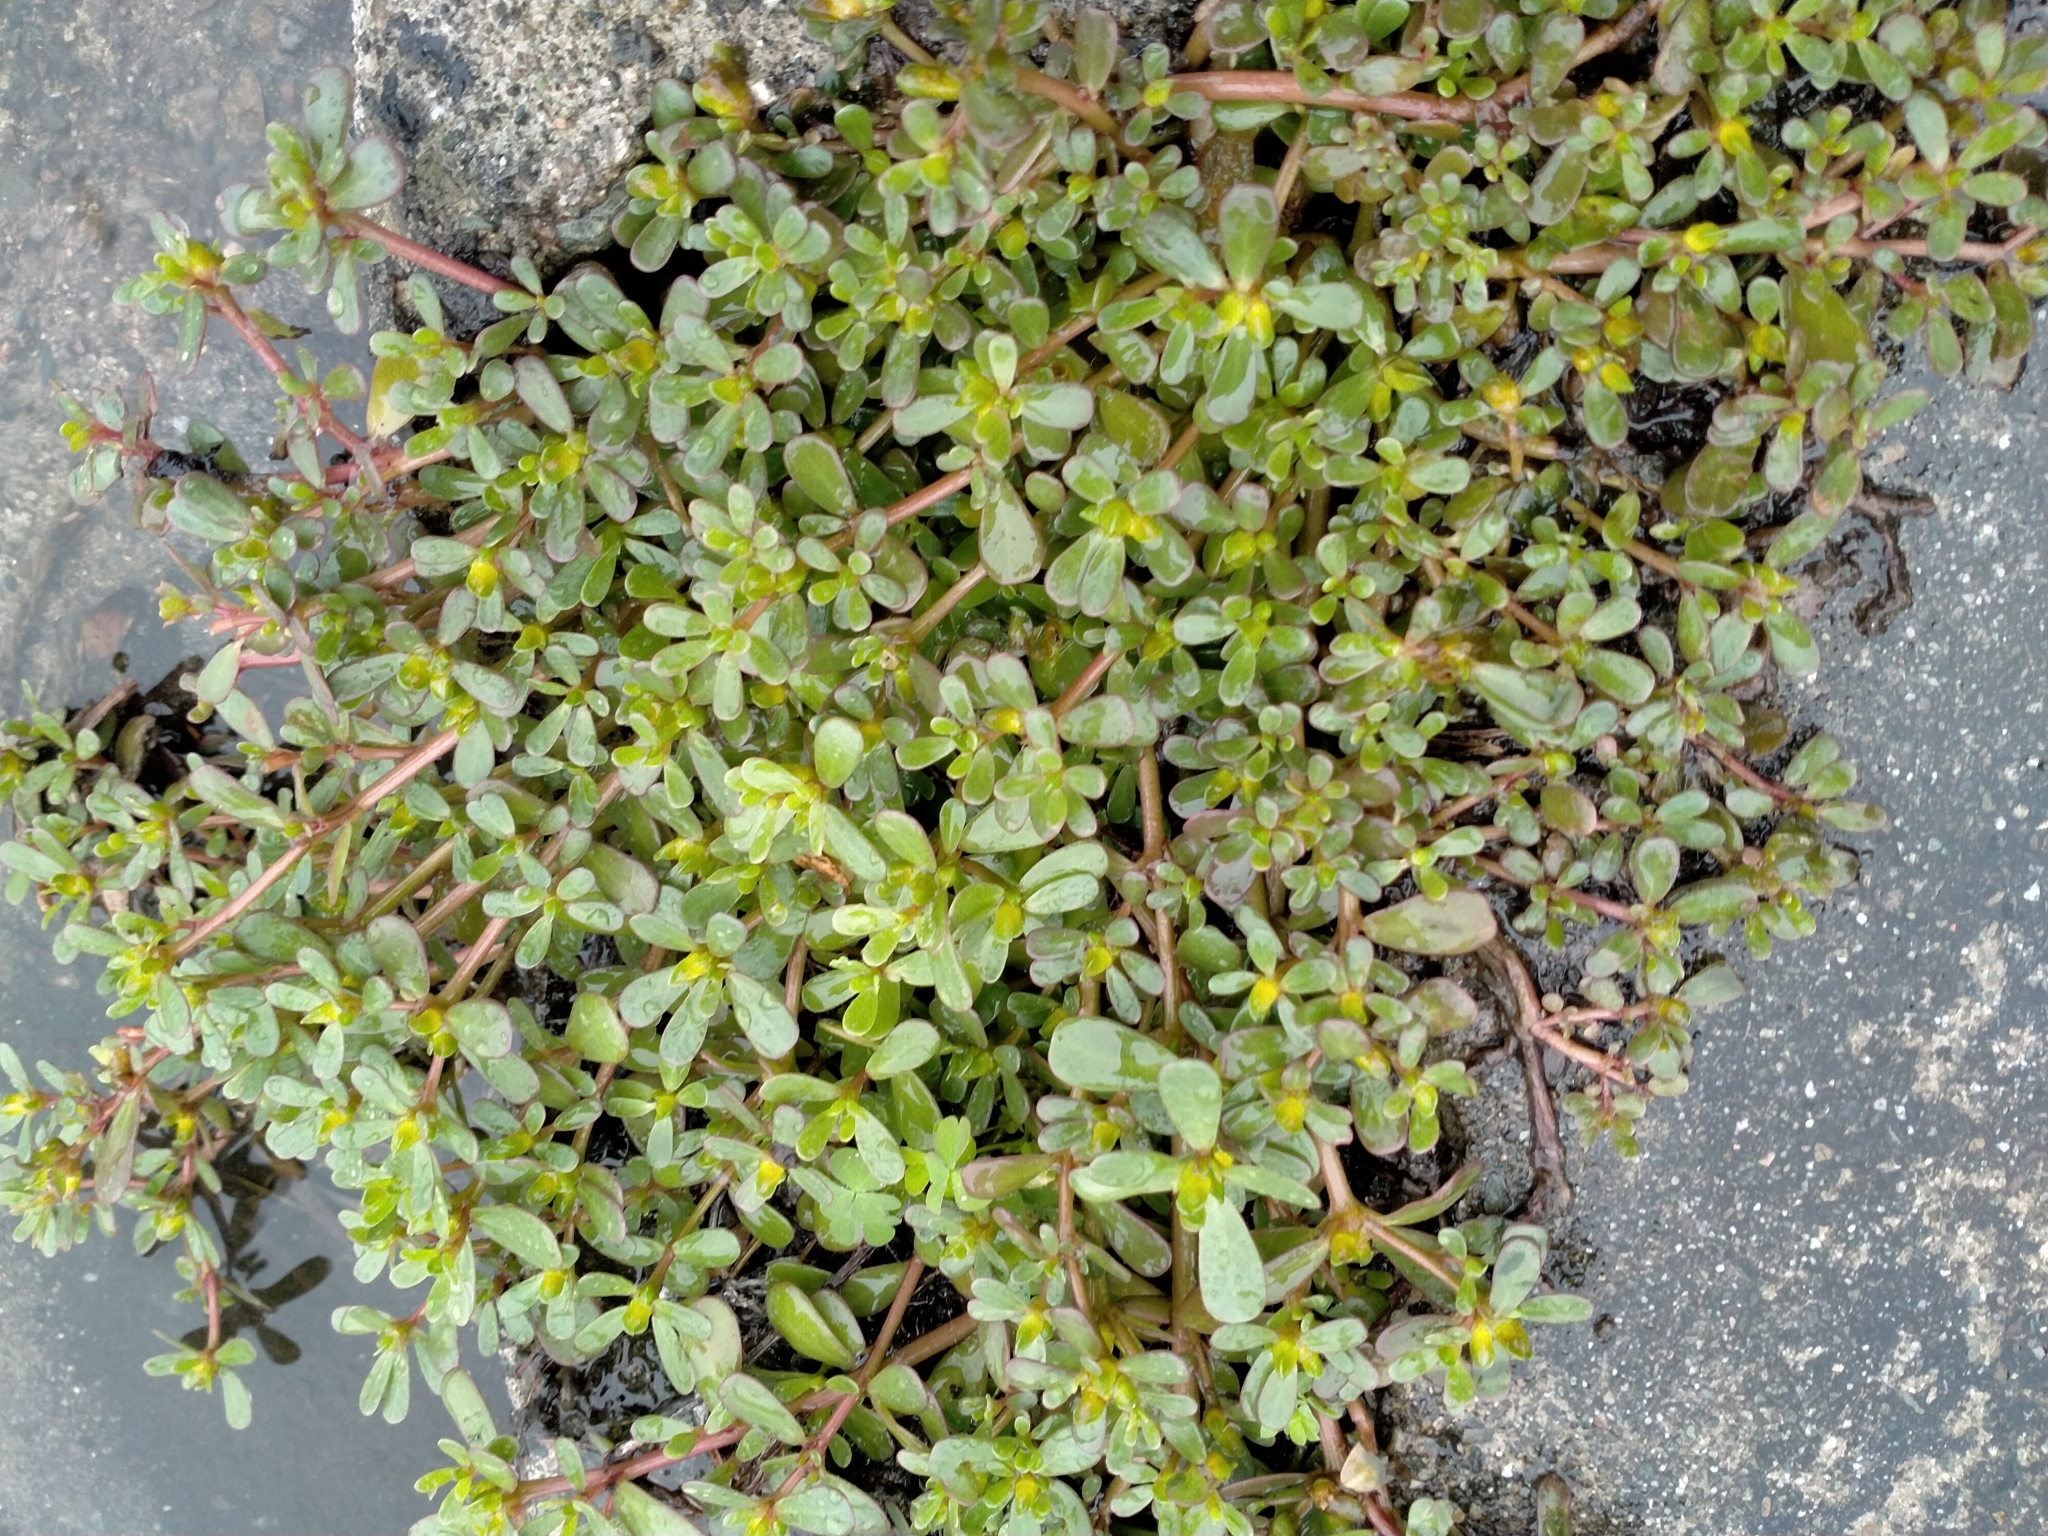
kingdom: Plantae
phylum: Tracheophyta
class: Magnoliopsida
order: Caryophyllales
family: Portulacaceae
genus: Portulaca
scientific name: Portulaca oleracea
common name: Common purslane
